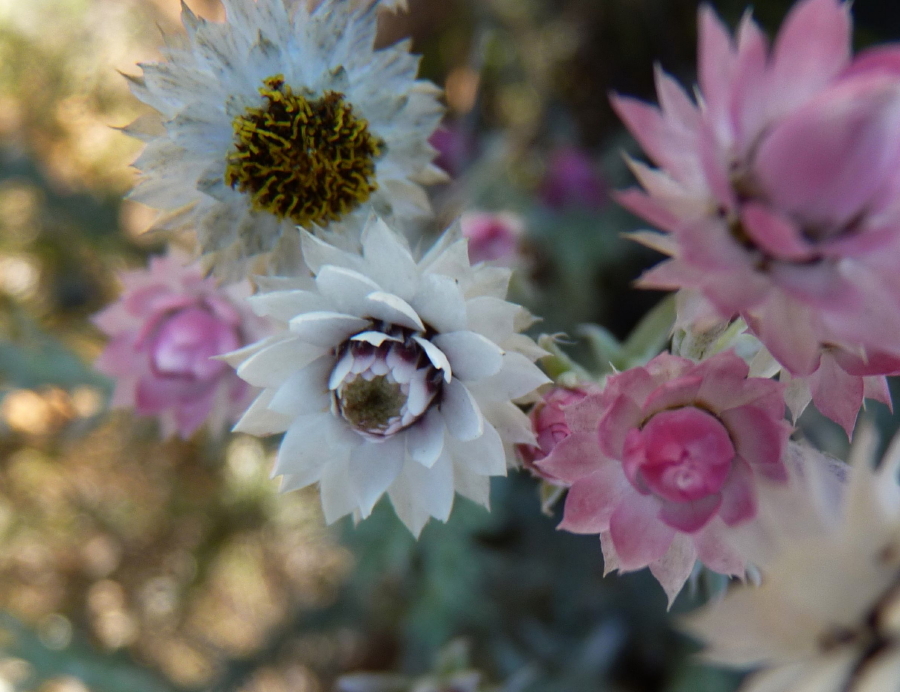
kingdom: Plantae
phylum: Tracheophyta
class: Magnoliopsida
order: Asterales
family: Asteraceae
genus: Achyranthemum
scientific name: Achyranthemum paniculatum
